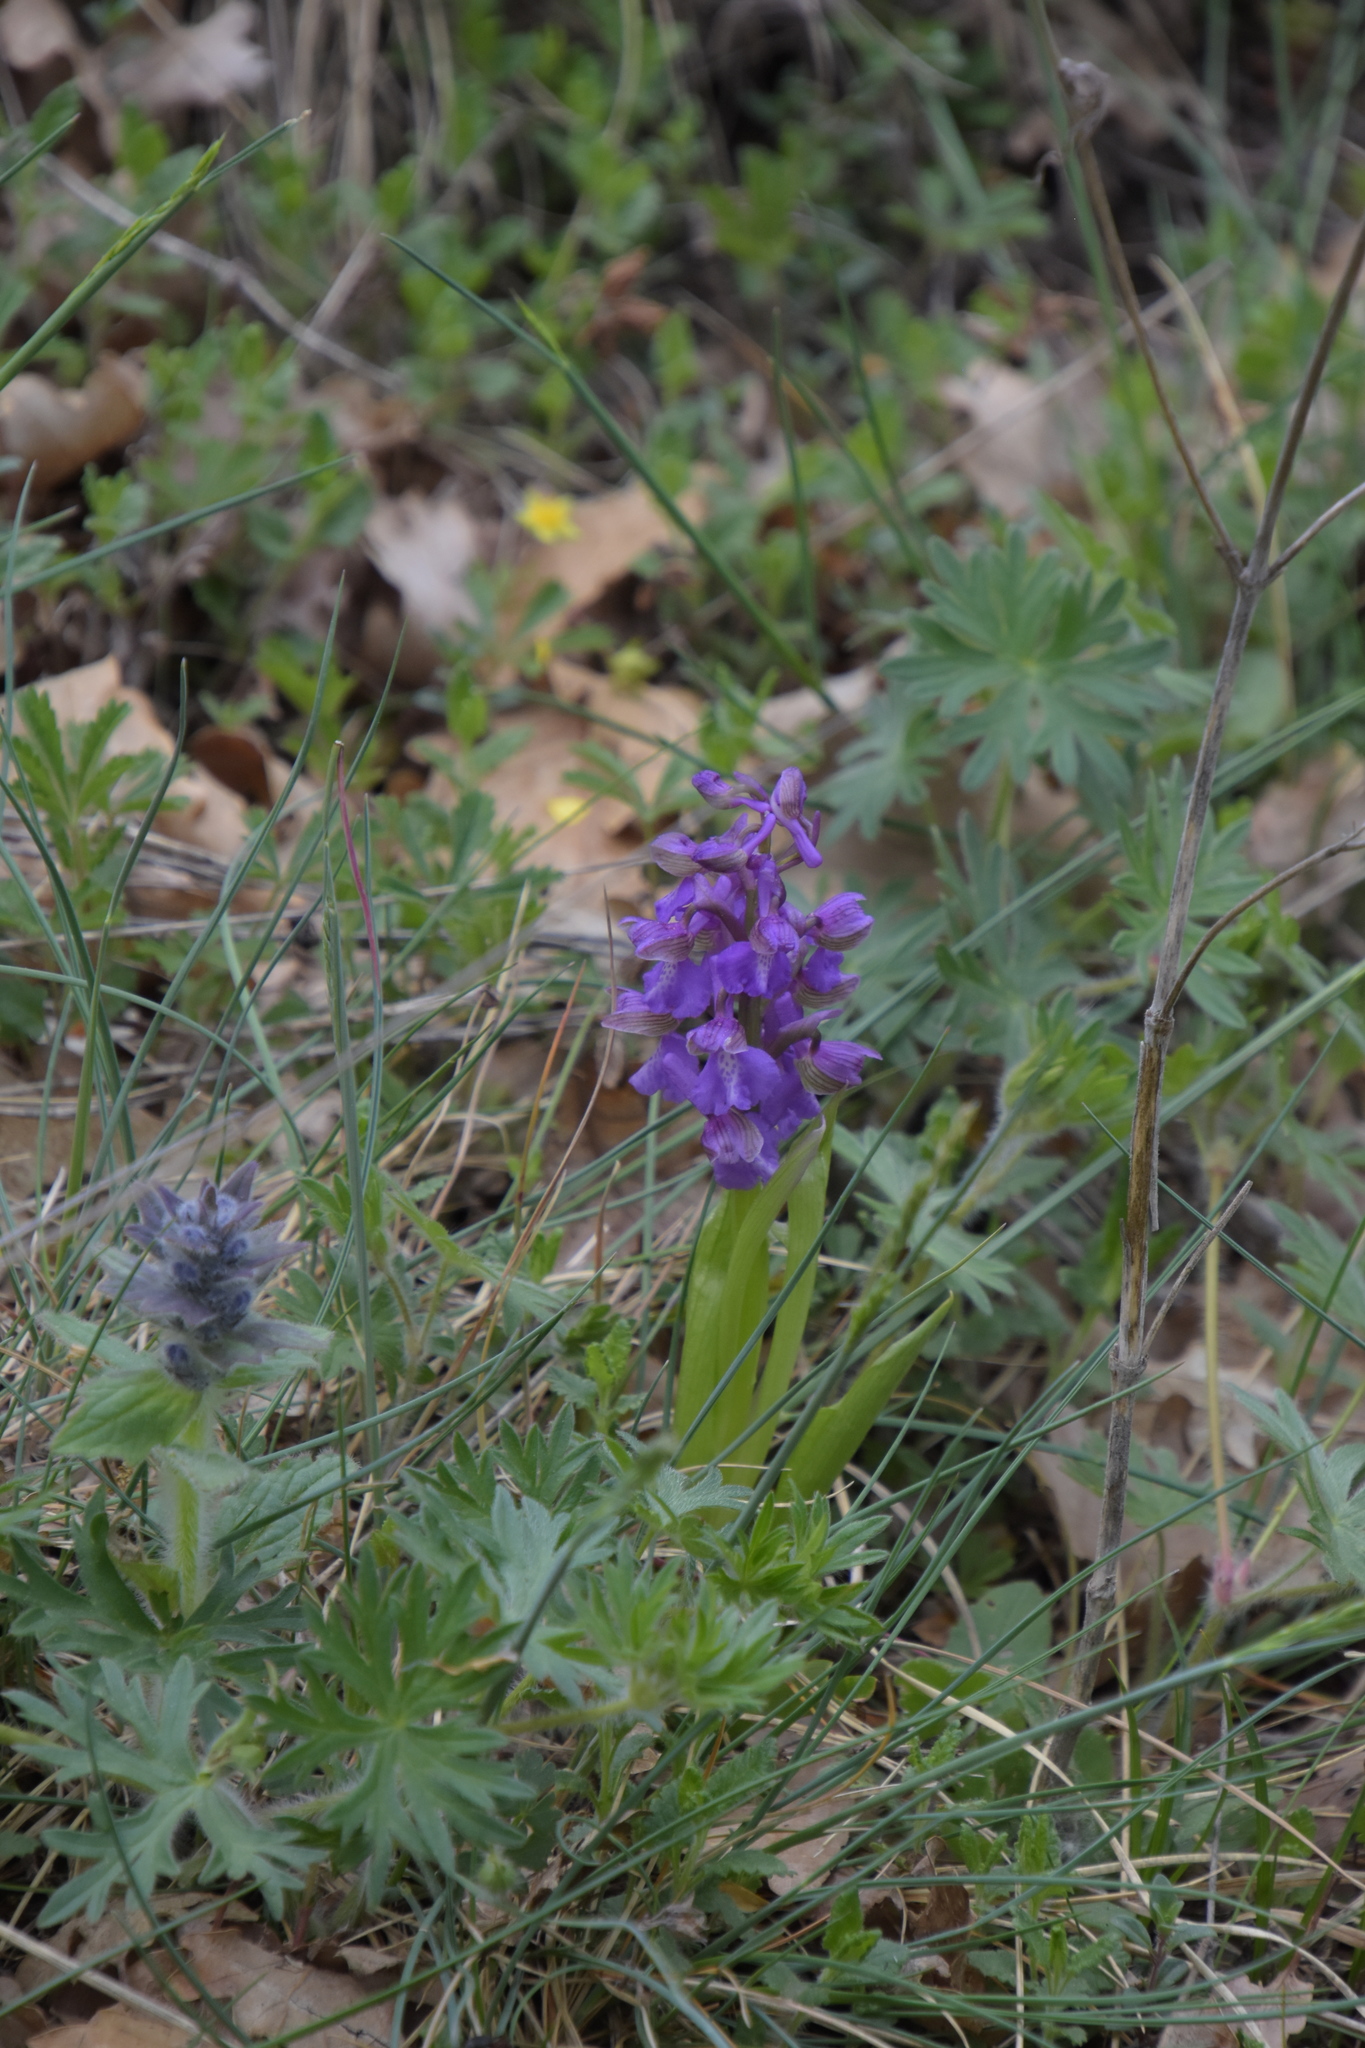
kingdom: Plantae
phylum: Tracheophyta
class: Liliopsida
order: Asparagales
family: Orchidaceae
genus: Anacamptis
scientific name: Anacamptis morio
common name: Green-winged orchid
